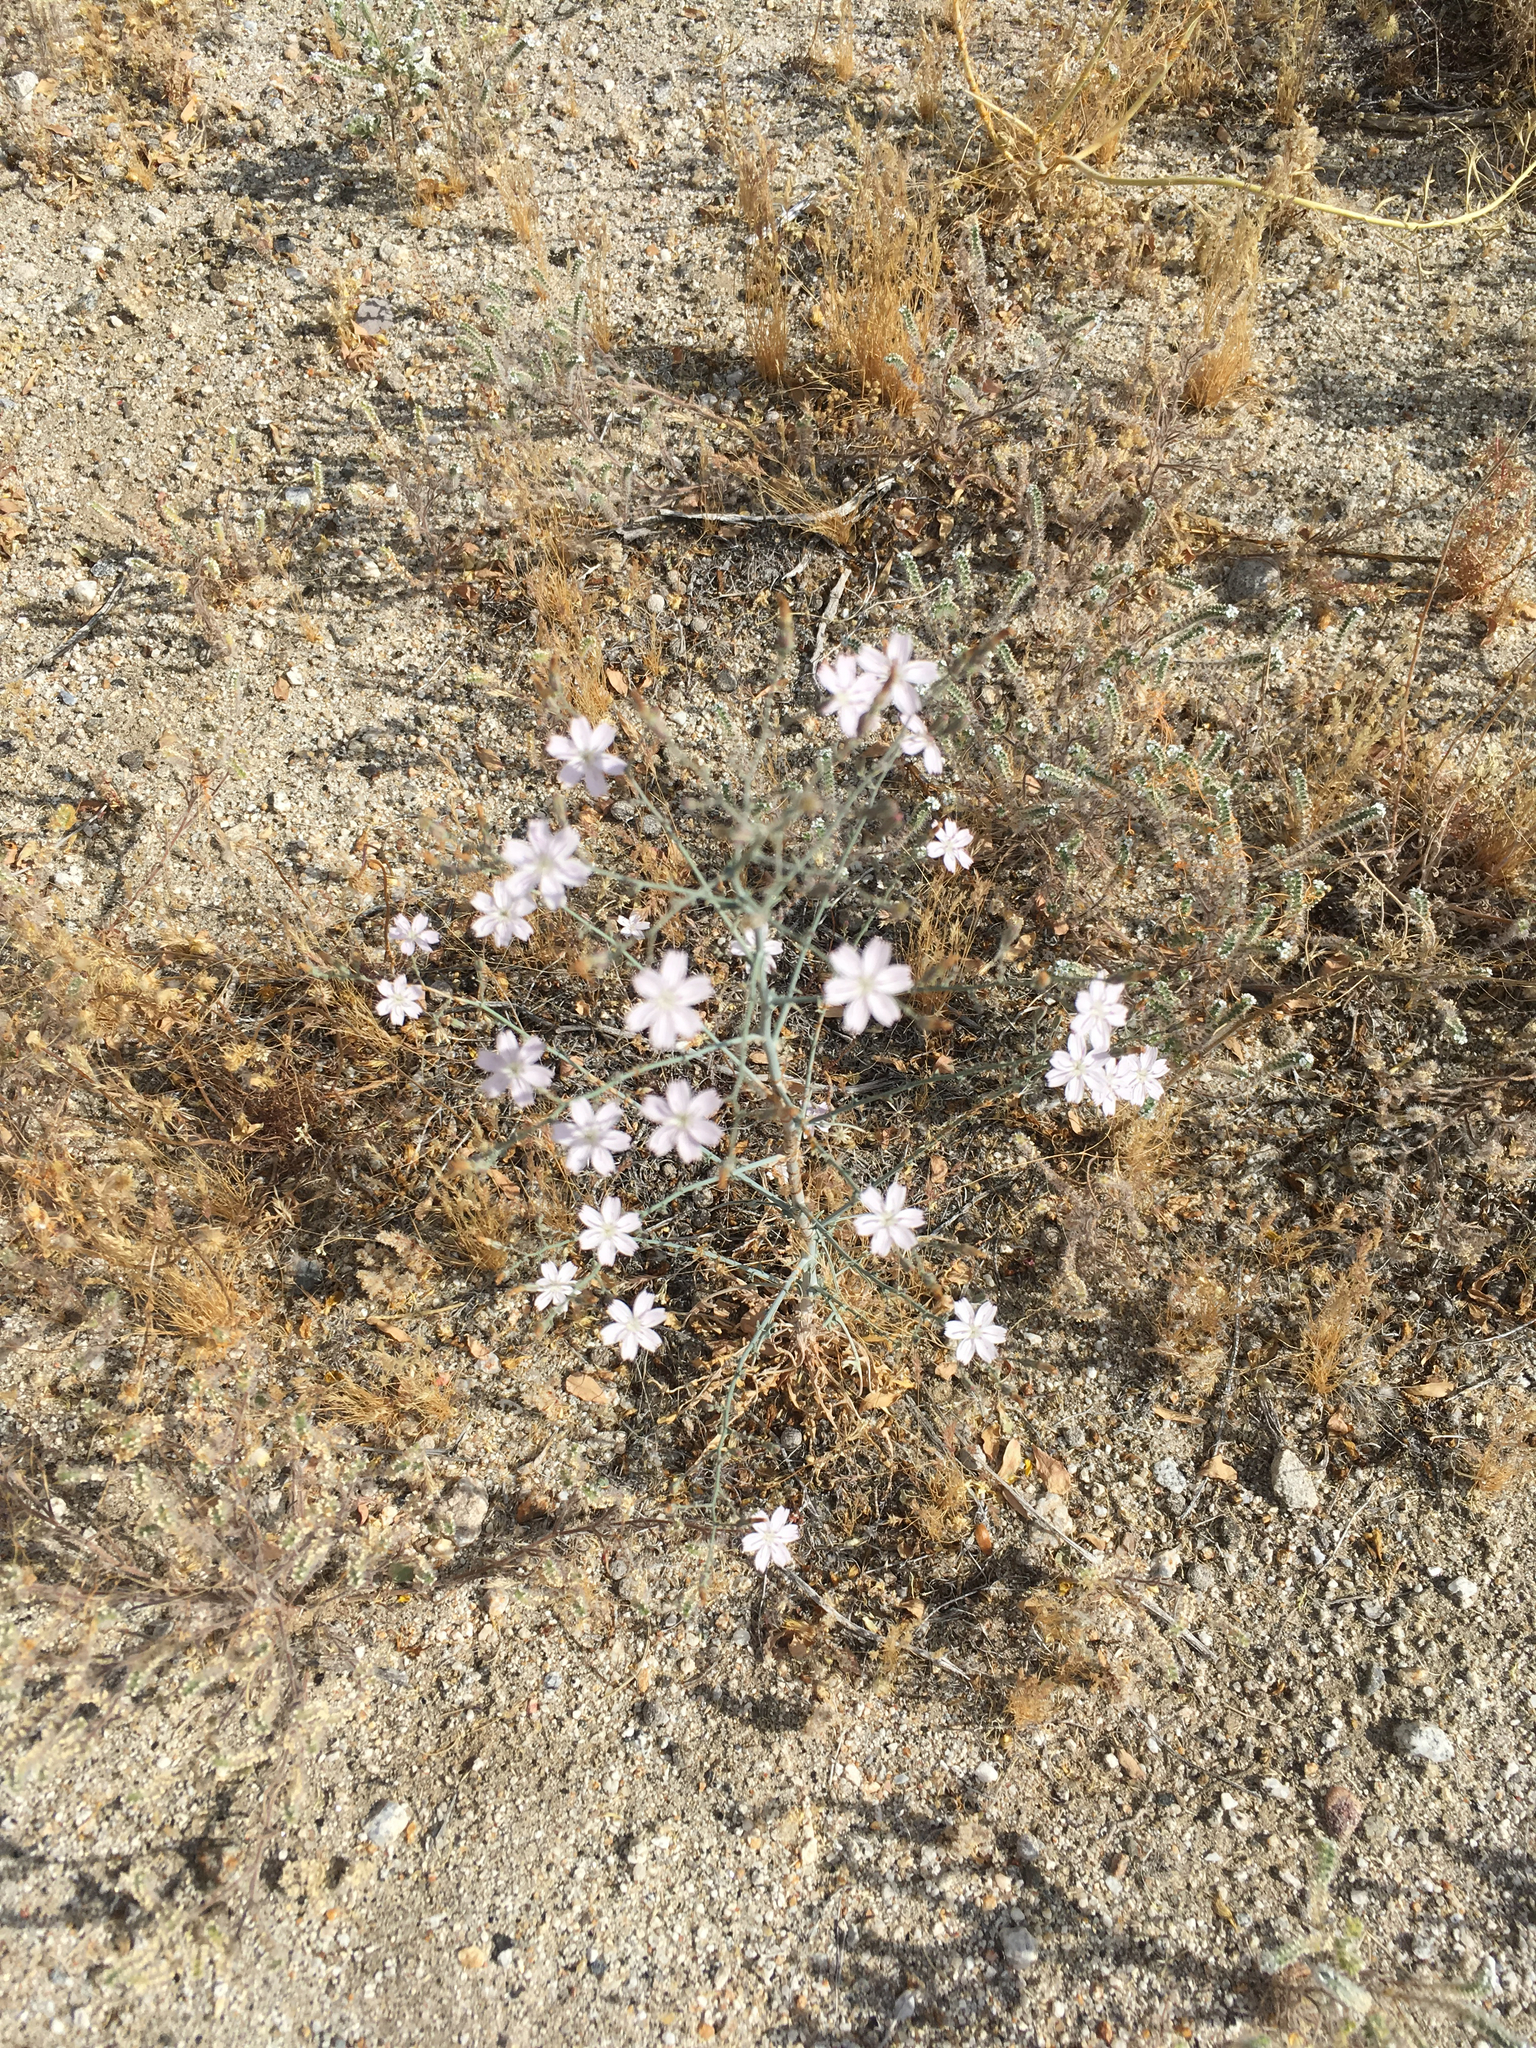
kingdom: Plantae
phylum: Tracheophyta
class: Magnoliopsida
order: Asterales
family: Asteraceae
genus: Stephanomeria
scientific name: Stephanomeria exigua
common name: Small wirelettuce
